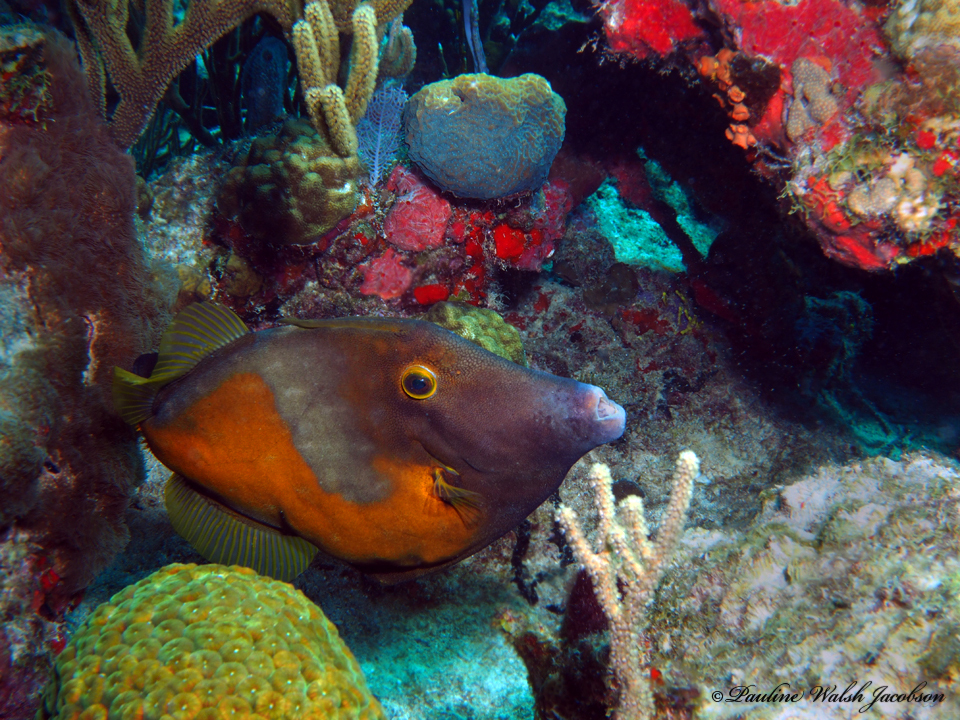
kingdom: Animalia
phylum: Chordata
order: Tetraodontiformes
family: Monacanthidae
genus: Cantherhines
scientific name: Cantherhines macrocerus
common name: Whitespotted filefish
